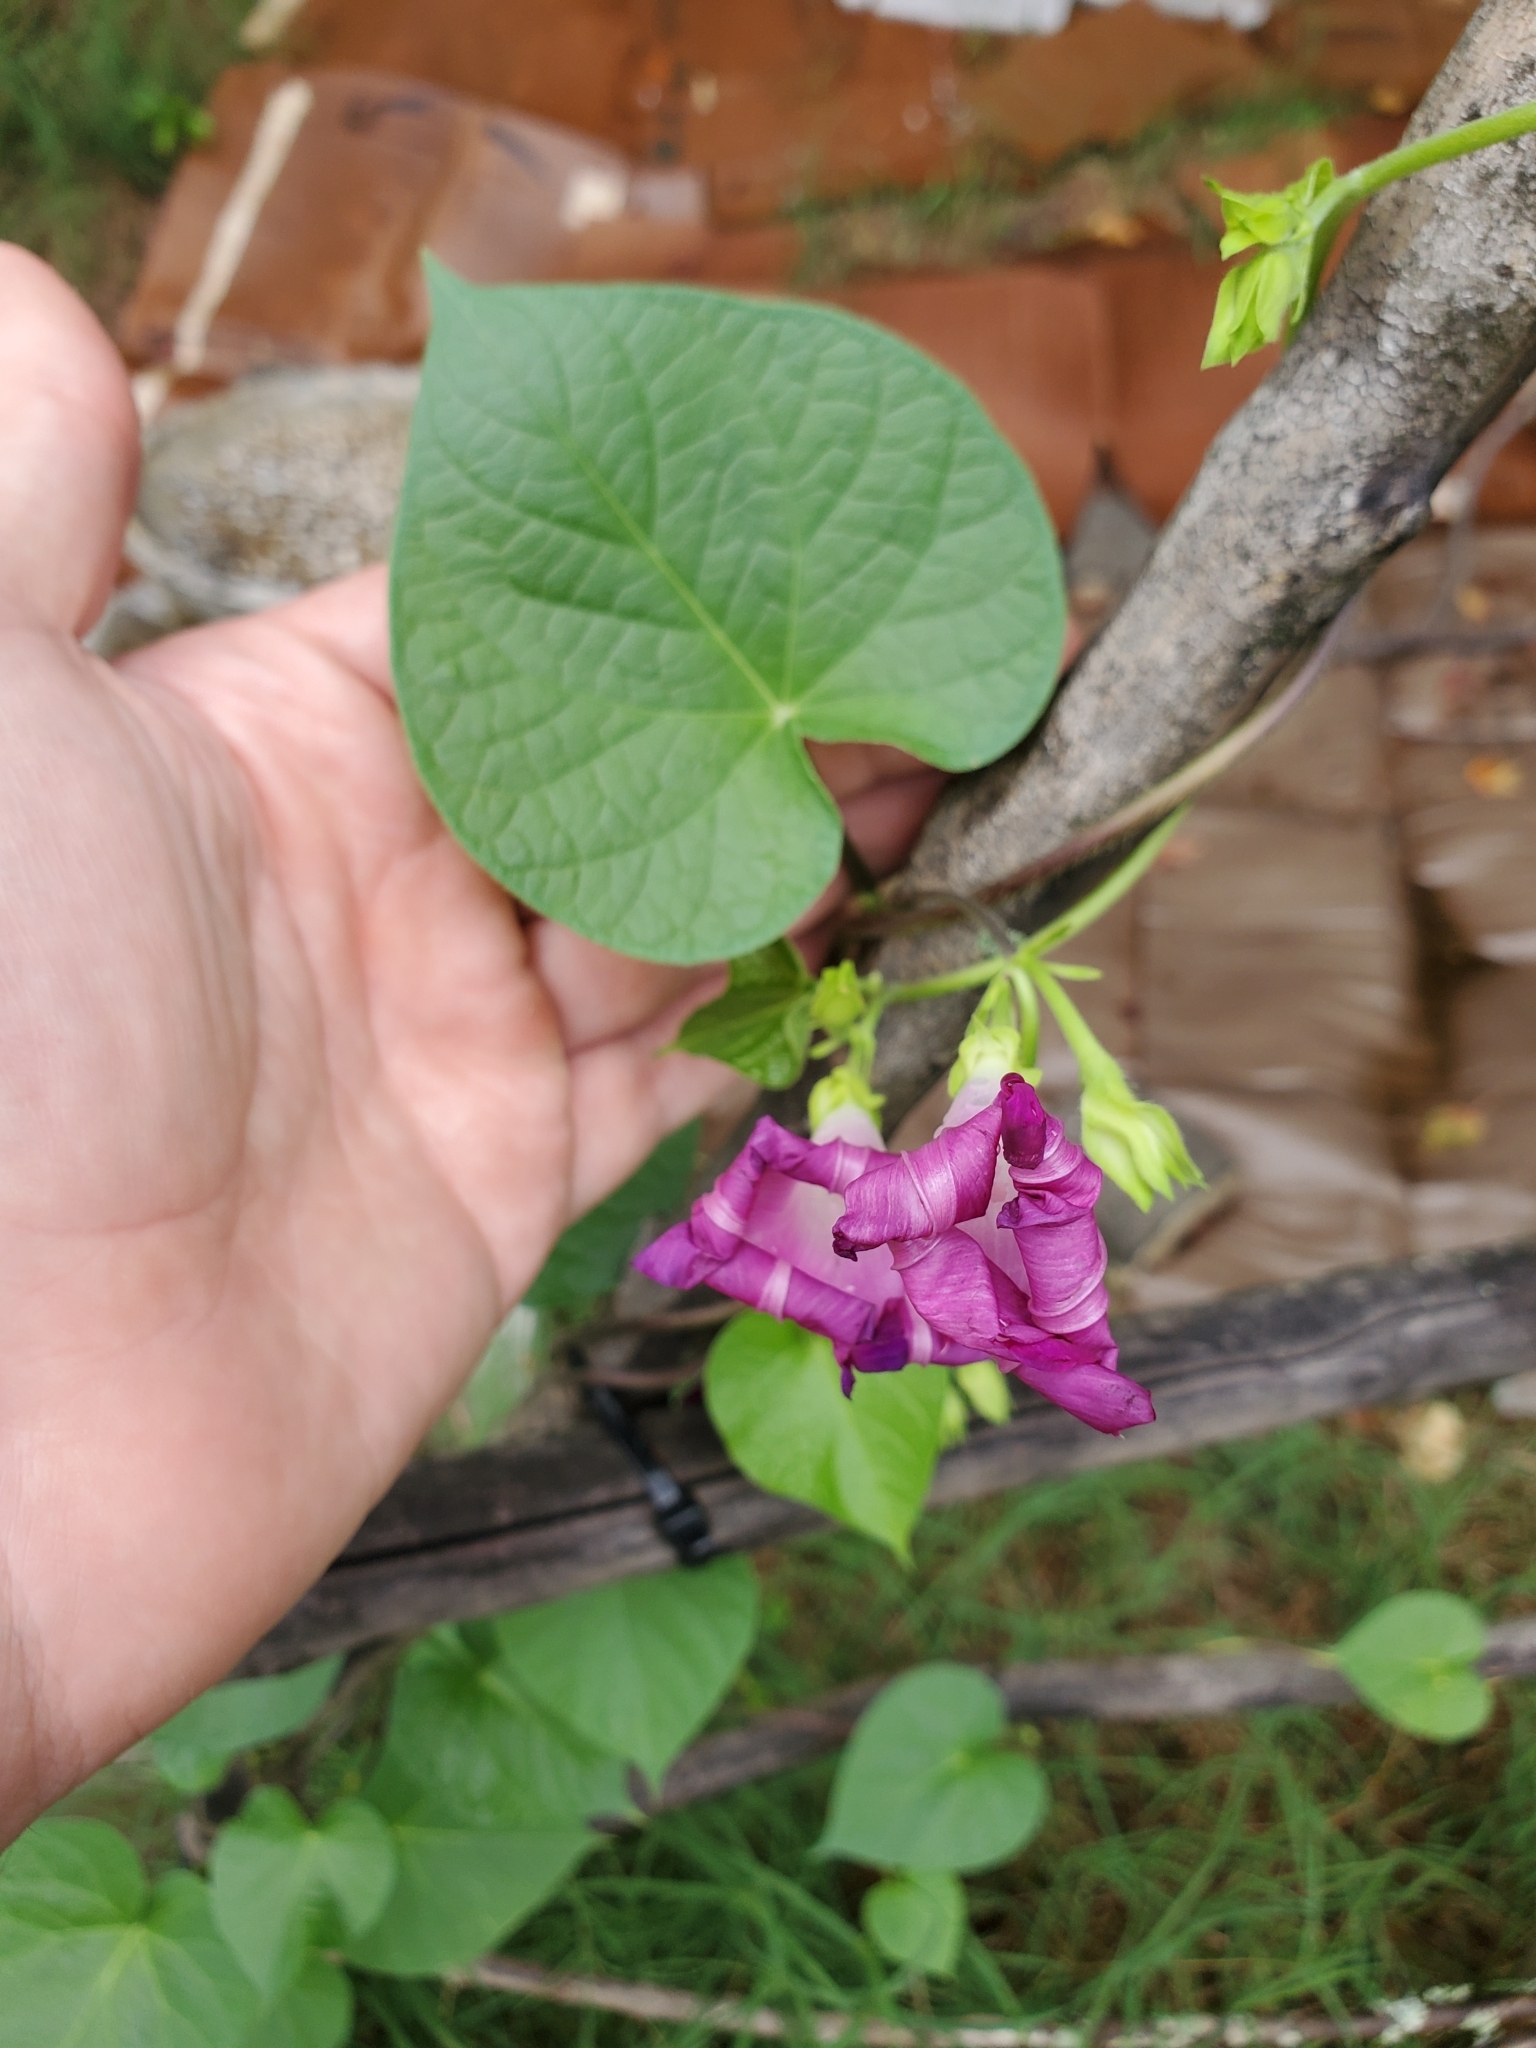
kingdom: Plantae
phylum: Tracheophyta
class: Magnoliopsida
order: Solanales
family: Convolvulaceae
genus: Ipomoea
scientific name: Ipomoea purpurea
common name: Common morning-glory
